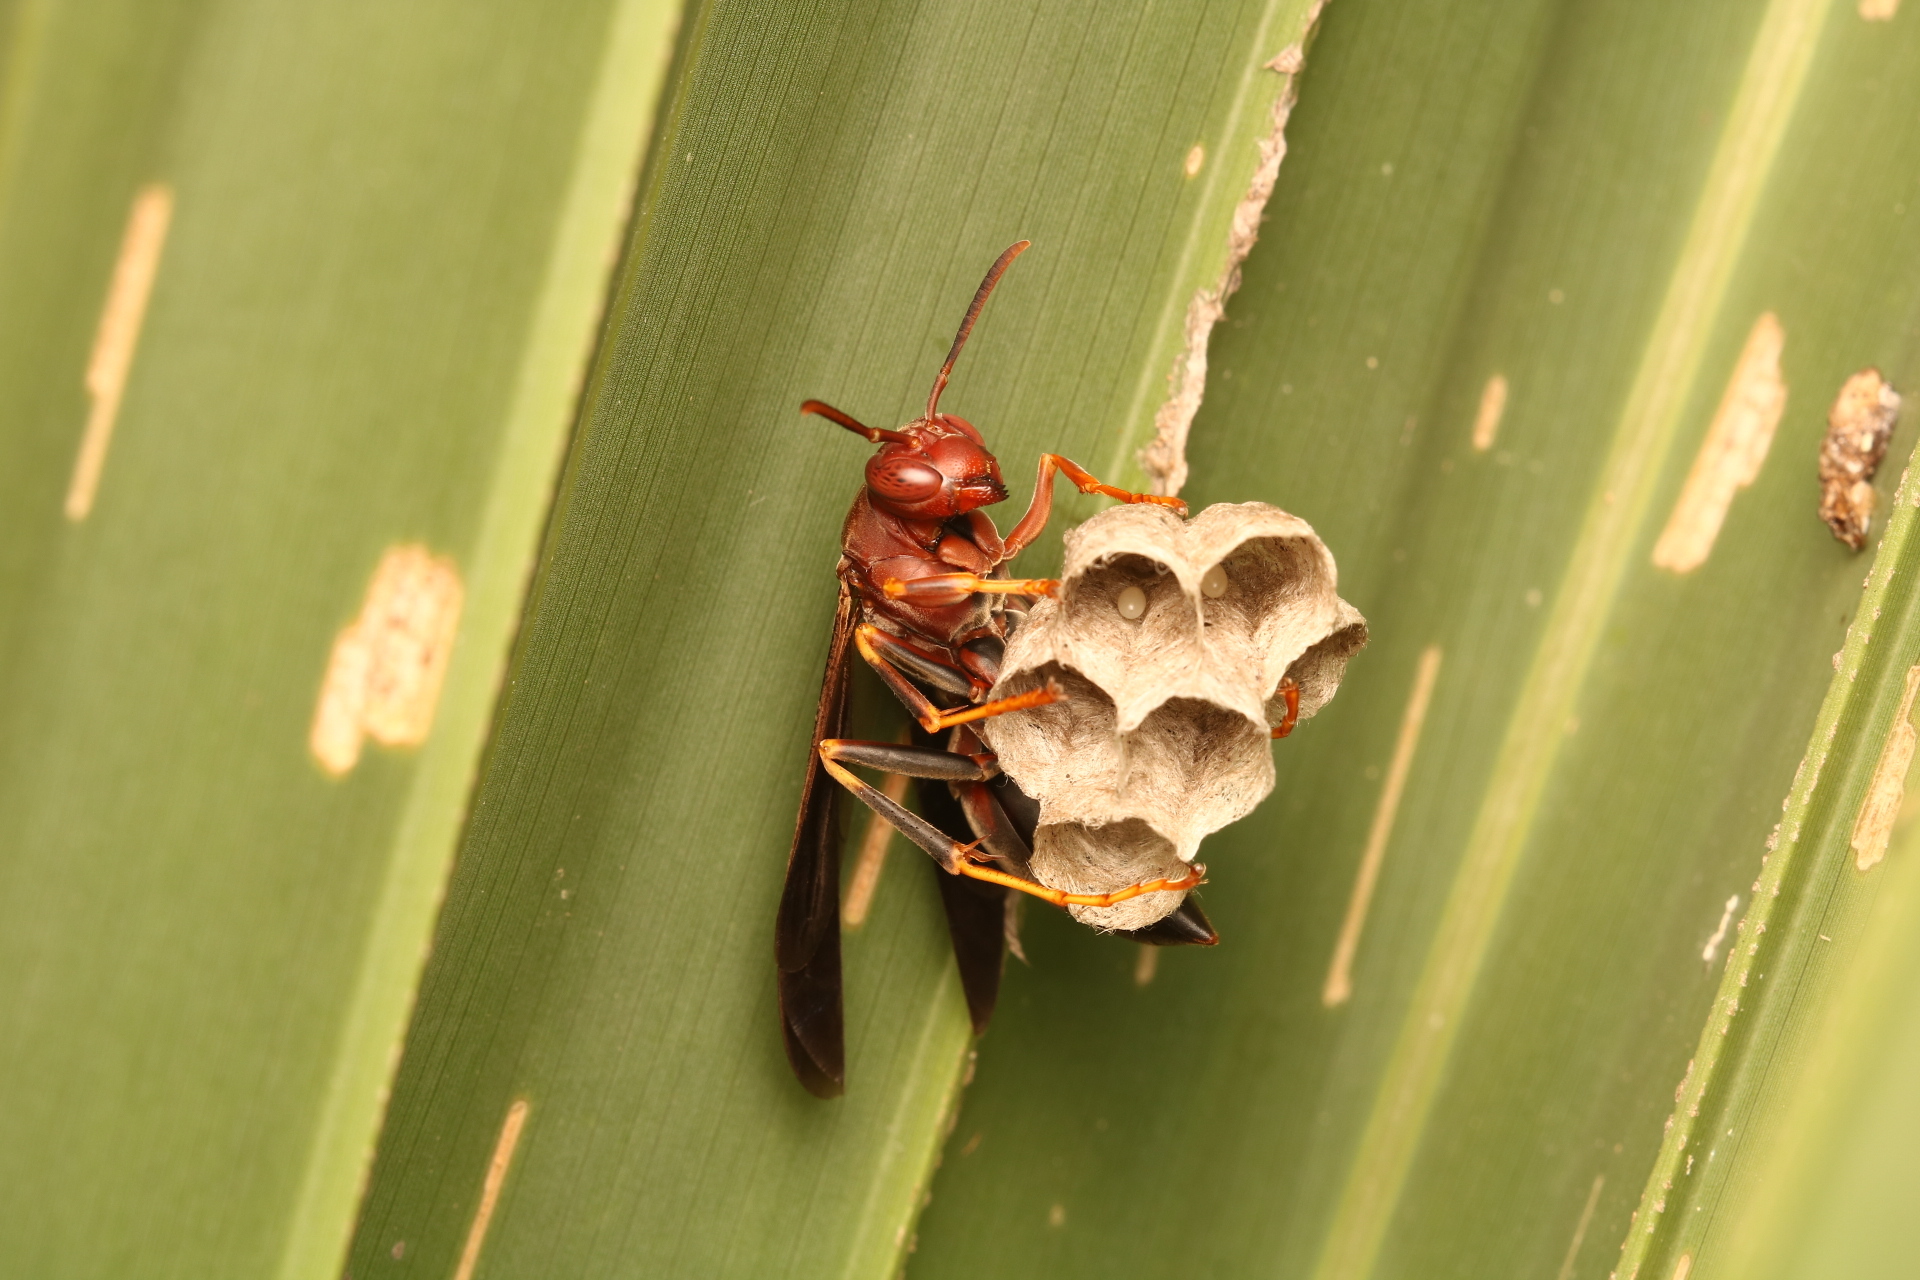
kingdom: Animalia
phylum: Arthropoda
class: Insecta
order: Hymenoptera
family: Eumenidae
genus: Polistes
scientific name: Polistes metricus
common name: Metric paper wasp
